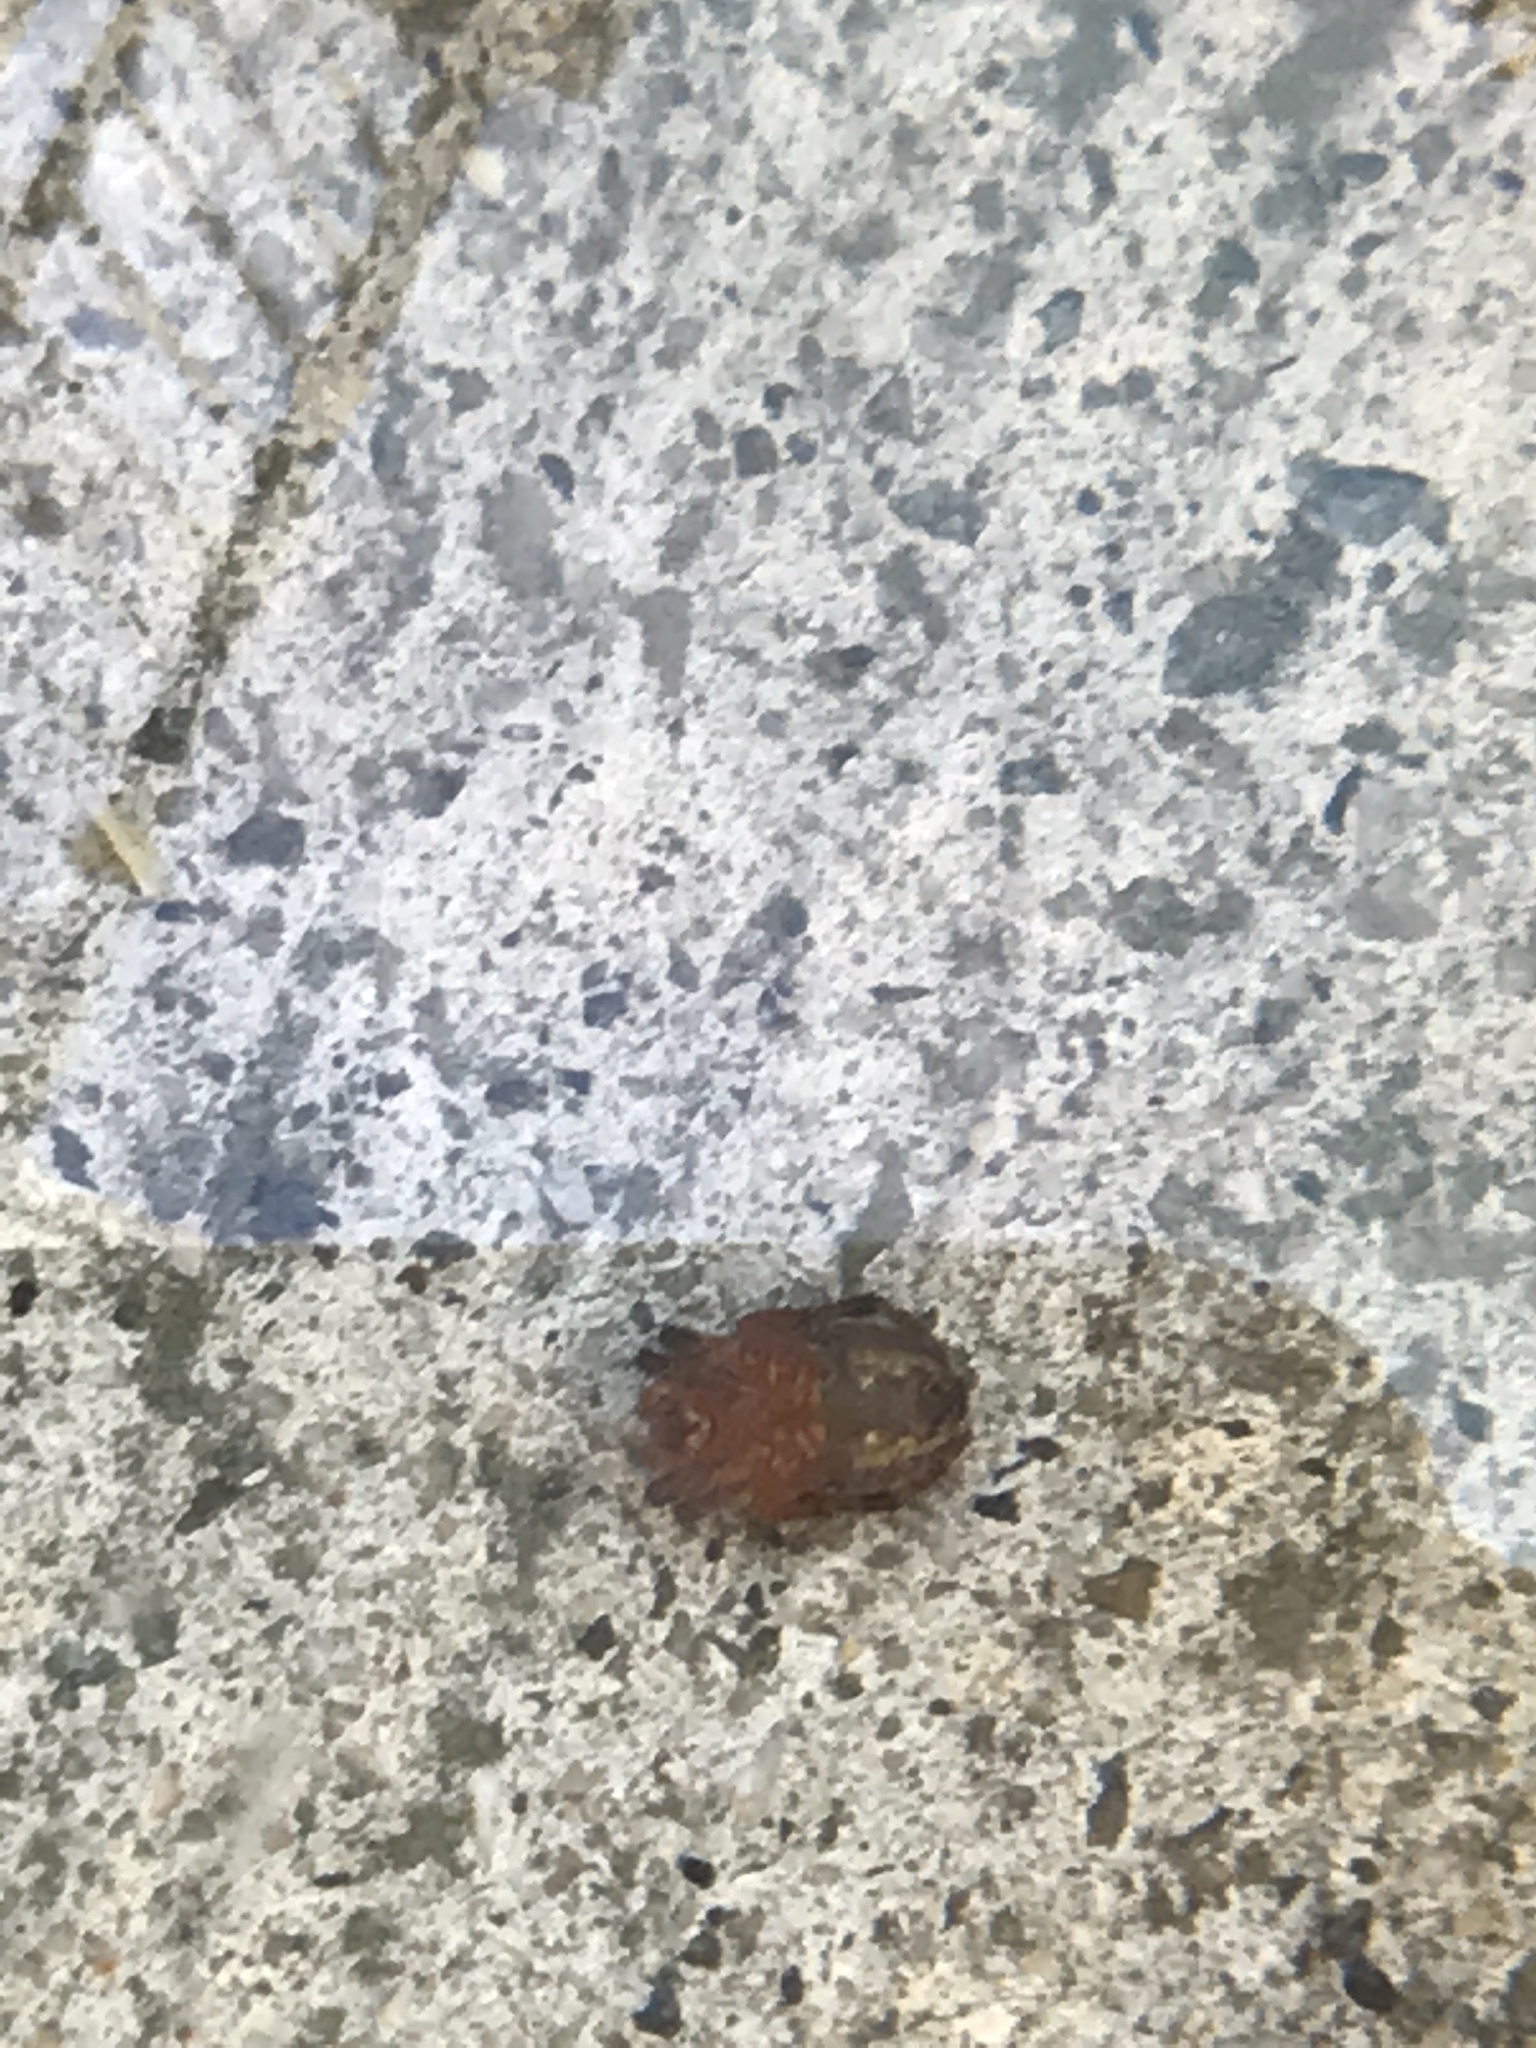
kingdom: Animalia
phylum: Arthropoda
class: Arachnida
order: Araneae
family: Araneidae
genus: Araneus
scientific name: Araneus diadematus
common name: Cross orbweaver
